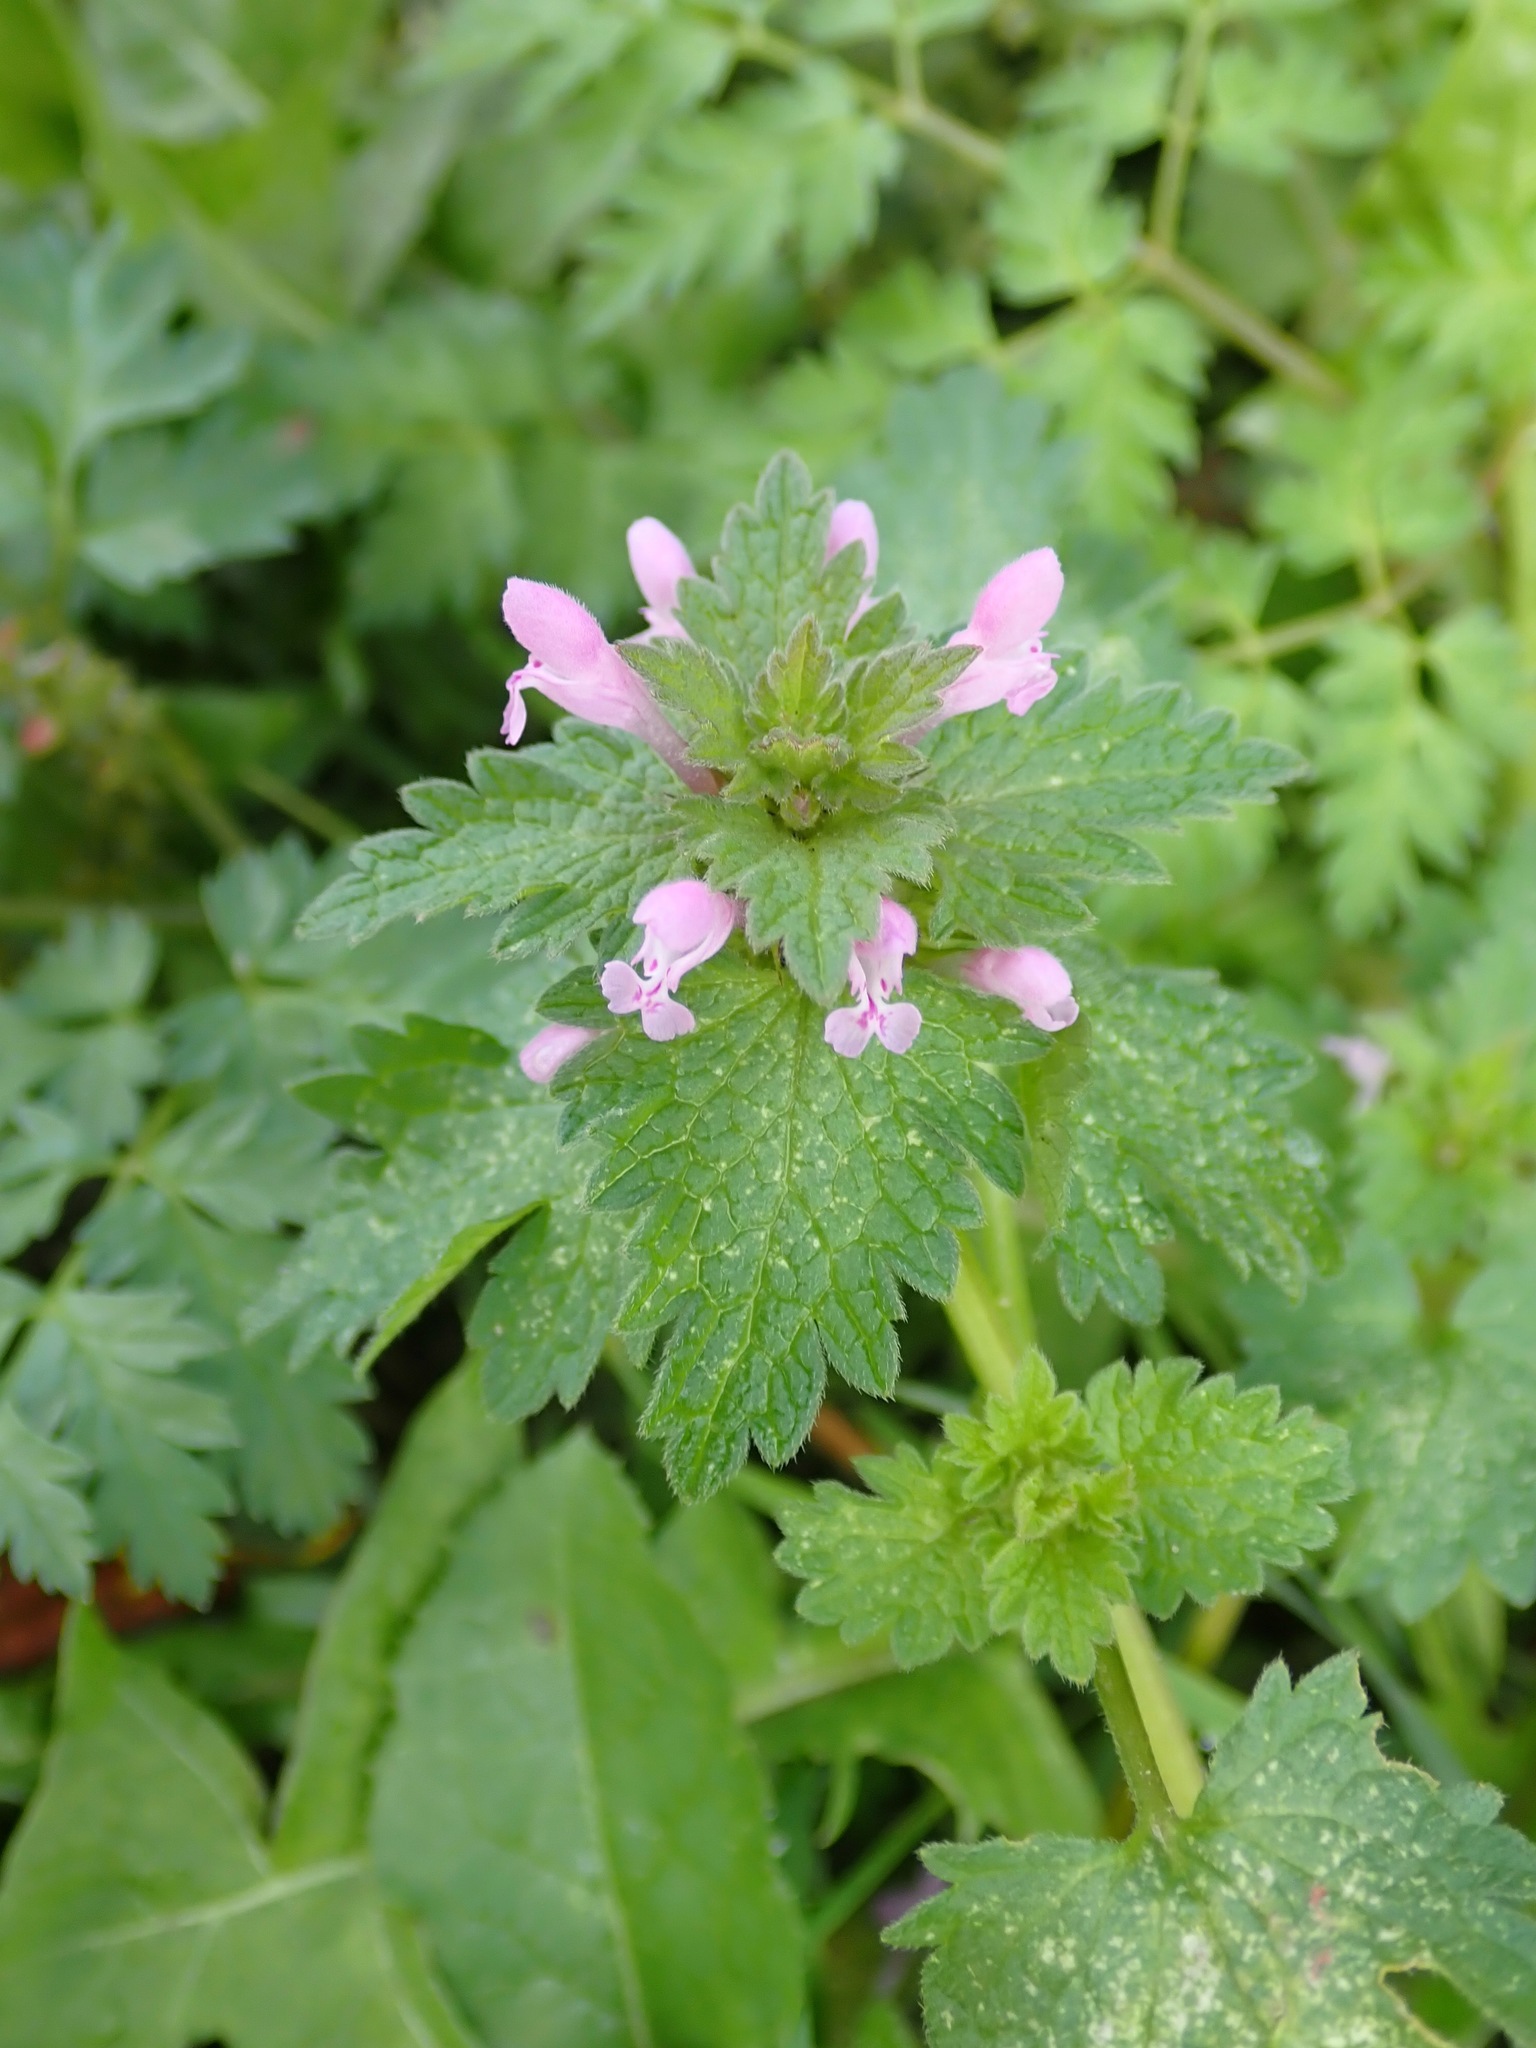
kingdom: Plantae
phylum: Tracheophyta
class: Magnoliopsida
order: Lamiales
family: Lamiaceae
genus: Lamium
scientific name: Lamium purpureum
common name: Red dead-nettle
